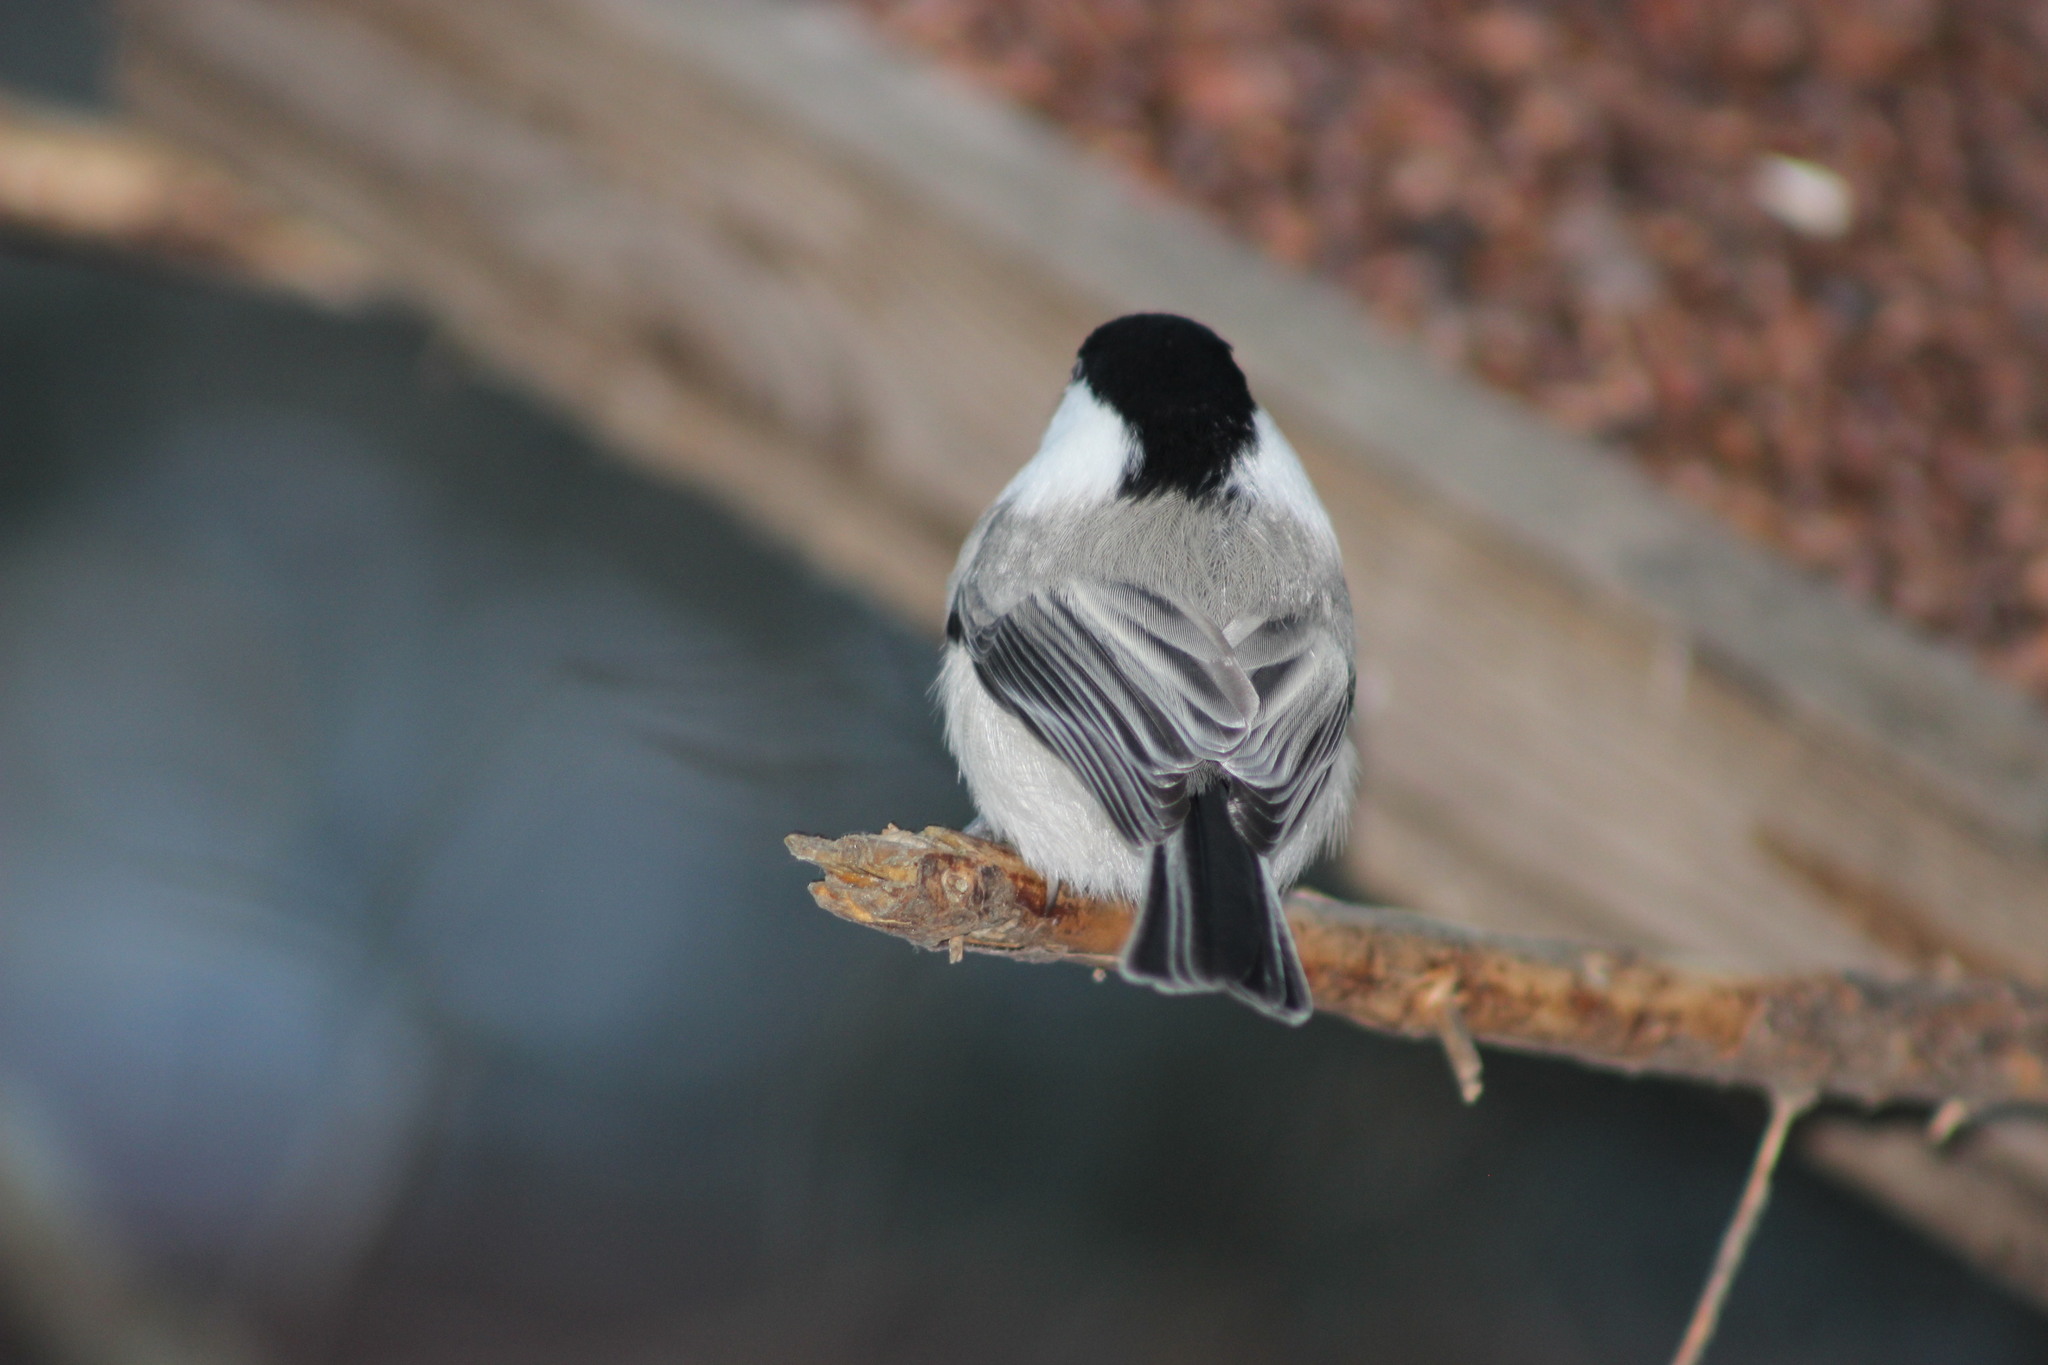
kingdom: Animalia
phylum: Chordata
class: Aves
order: Passeriformes
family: Paridae
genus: Poecile
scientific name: Poecile montanus
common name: Willow tit
